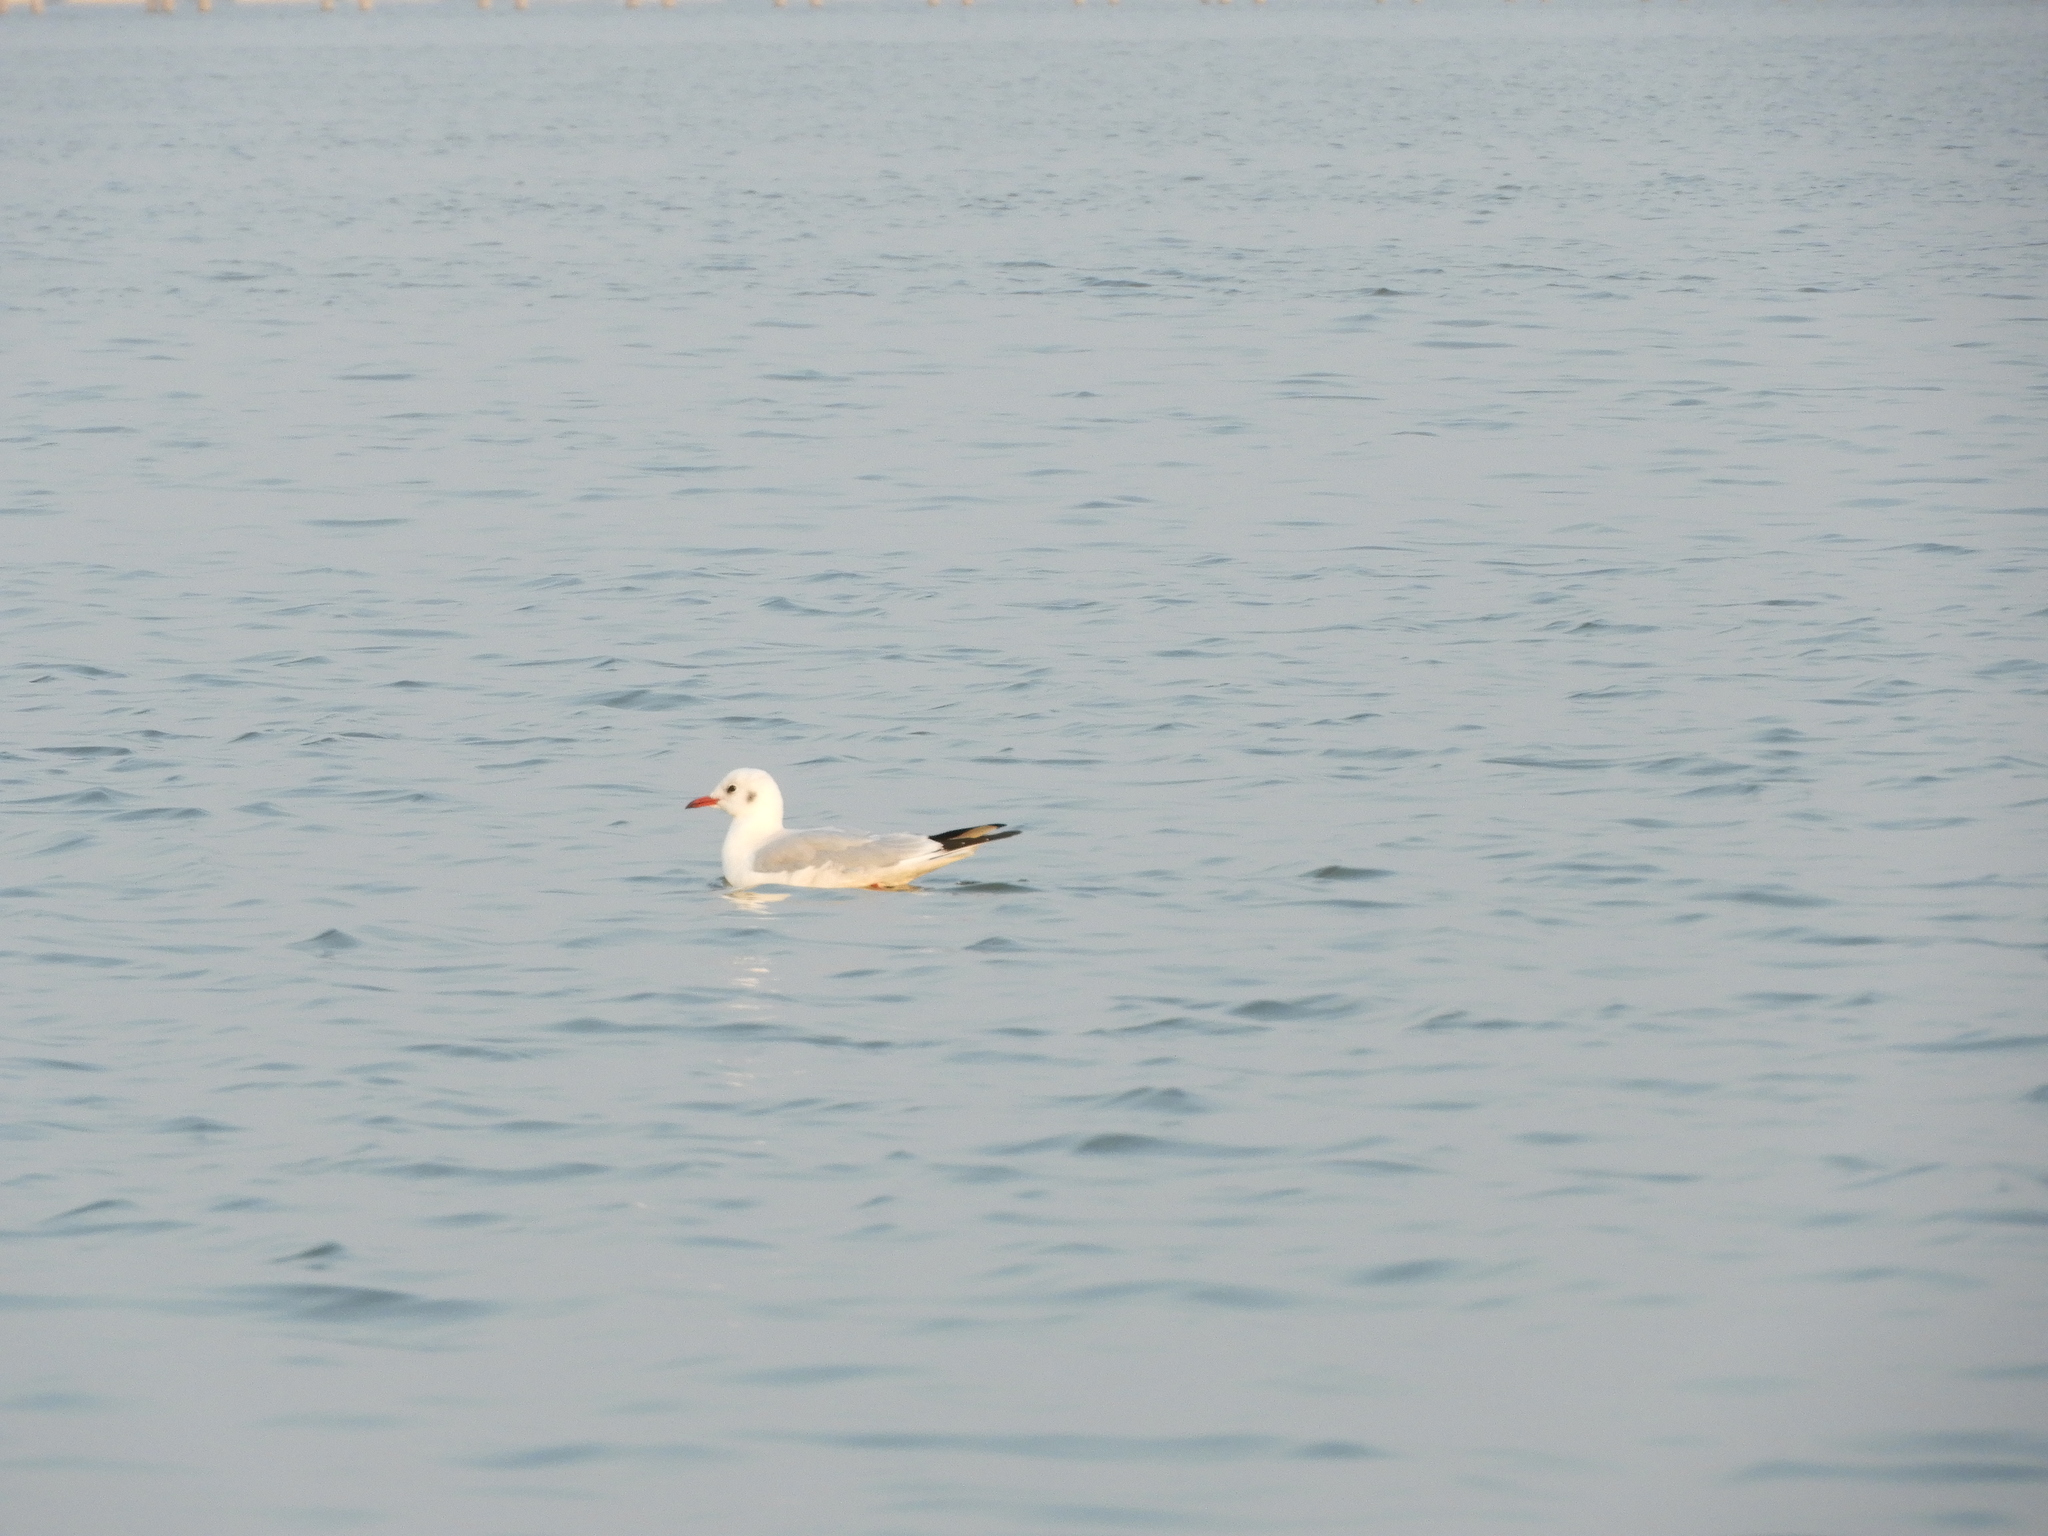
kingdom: Animalia
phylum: Chordata
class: Aves
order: Charadriiformes
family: Laridae
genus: Chroicocephalus
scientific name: Chroicocephalus ridibundus
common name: Black-headed gull
